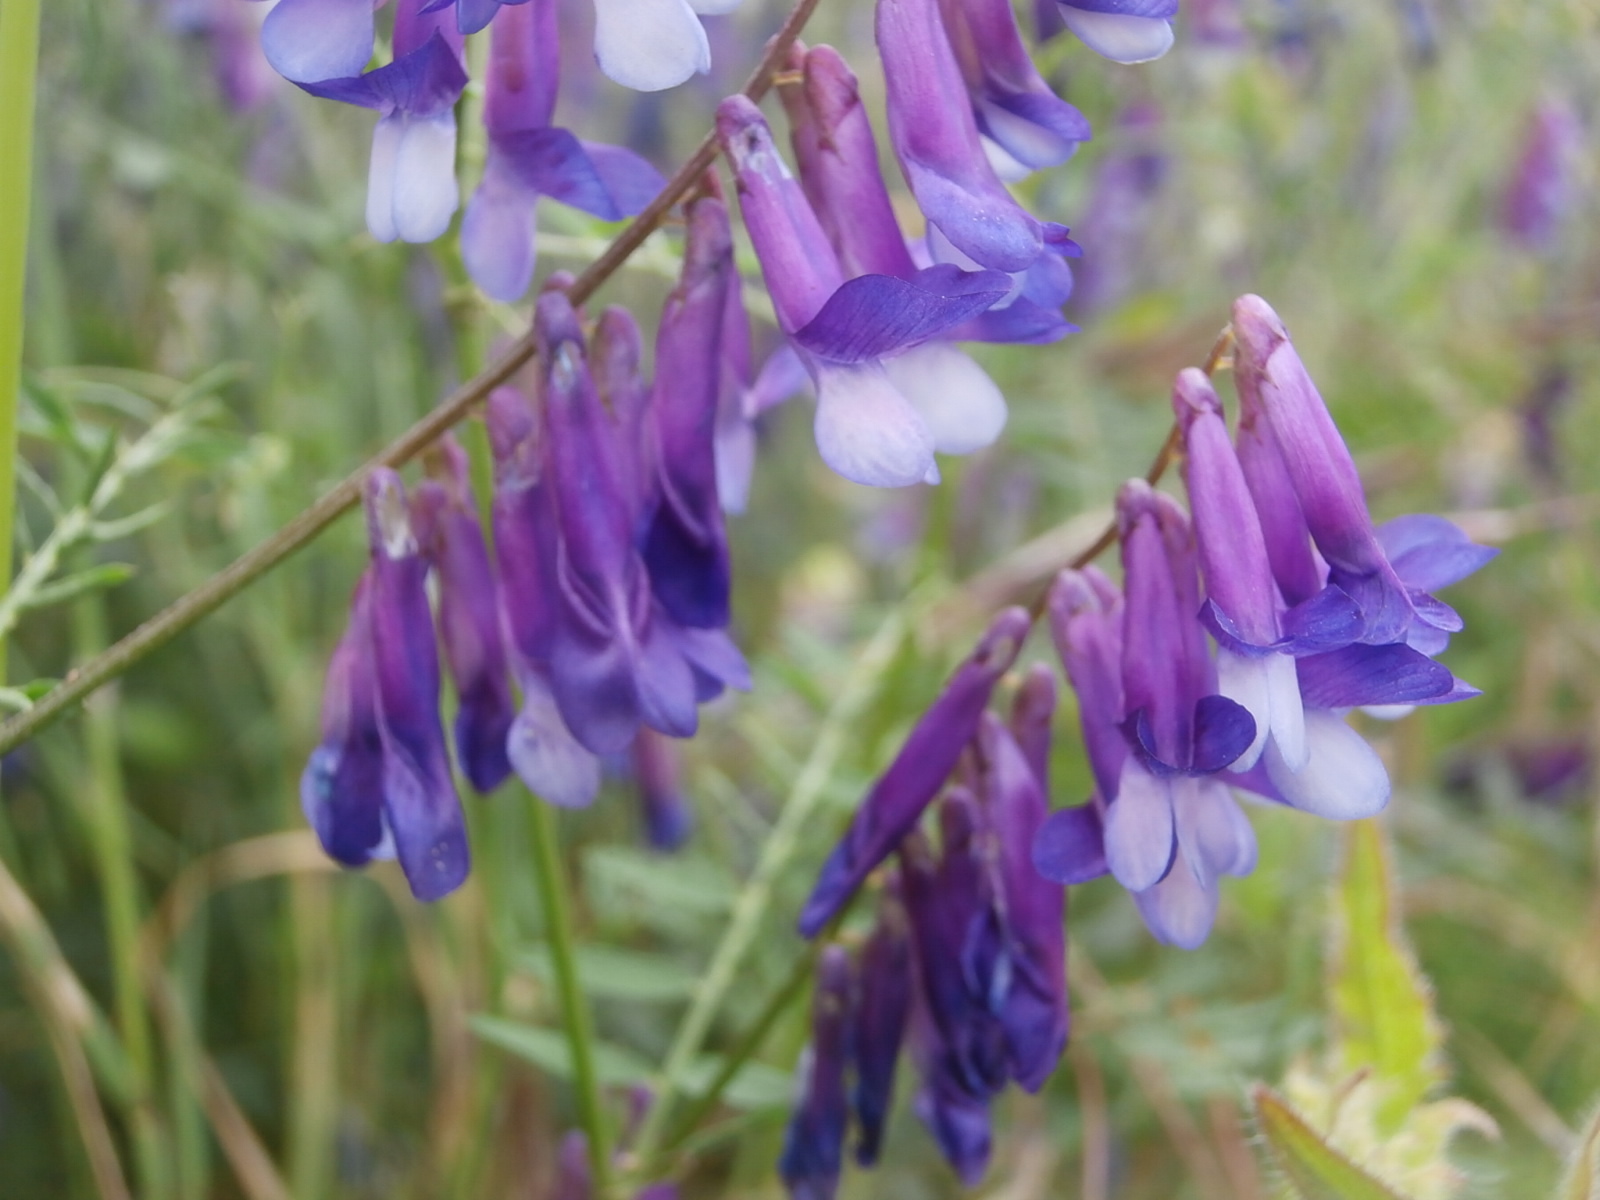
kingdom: Plantae
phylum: Tracheophyta
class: Magnoliopsida
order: Fabales
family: Fabaceae
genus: Vicia
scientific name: Vicia villosa
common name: Fodder vetch
